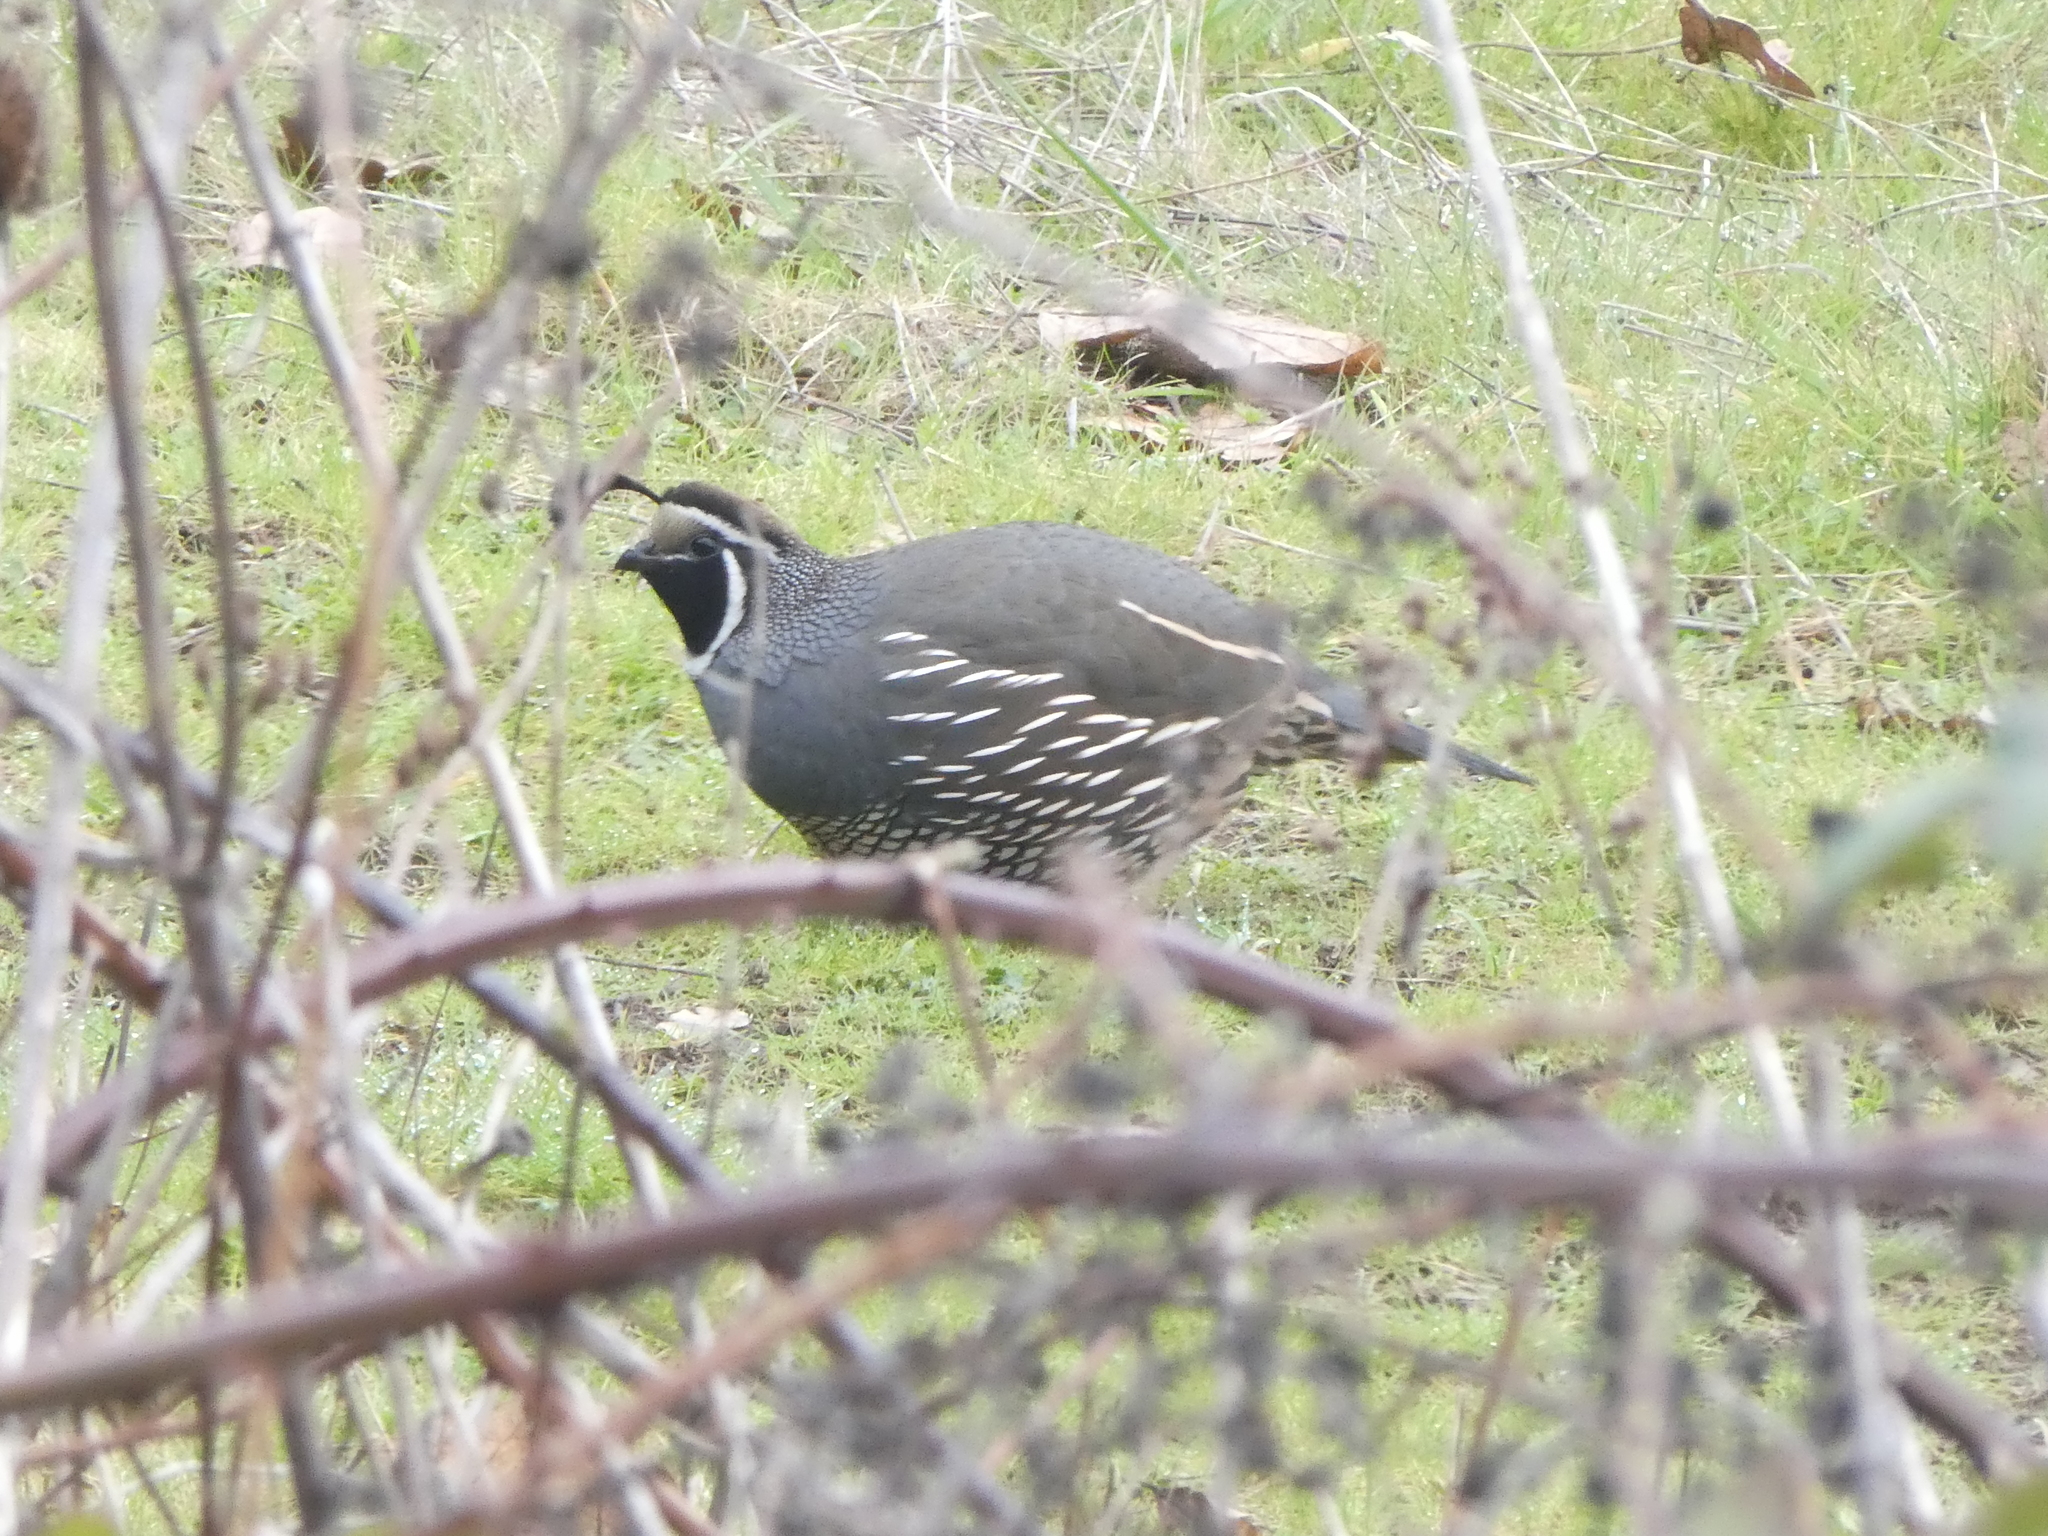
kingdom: Animalia
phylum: Chordata
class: Aves
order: Galliformes
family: Odontophoridae
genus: Callipepla
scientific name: Callipepla californica
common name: California quail
